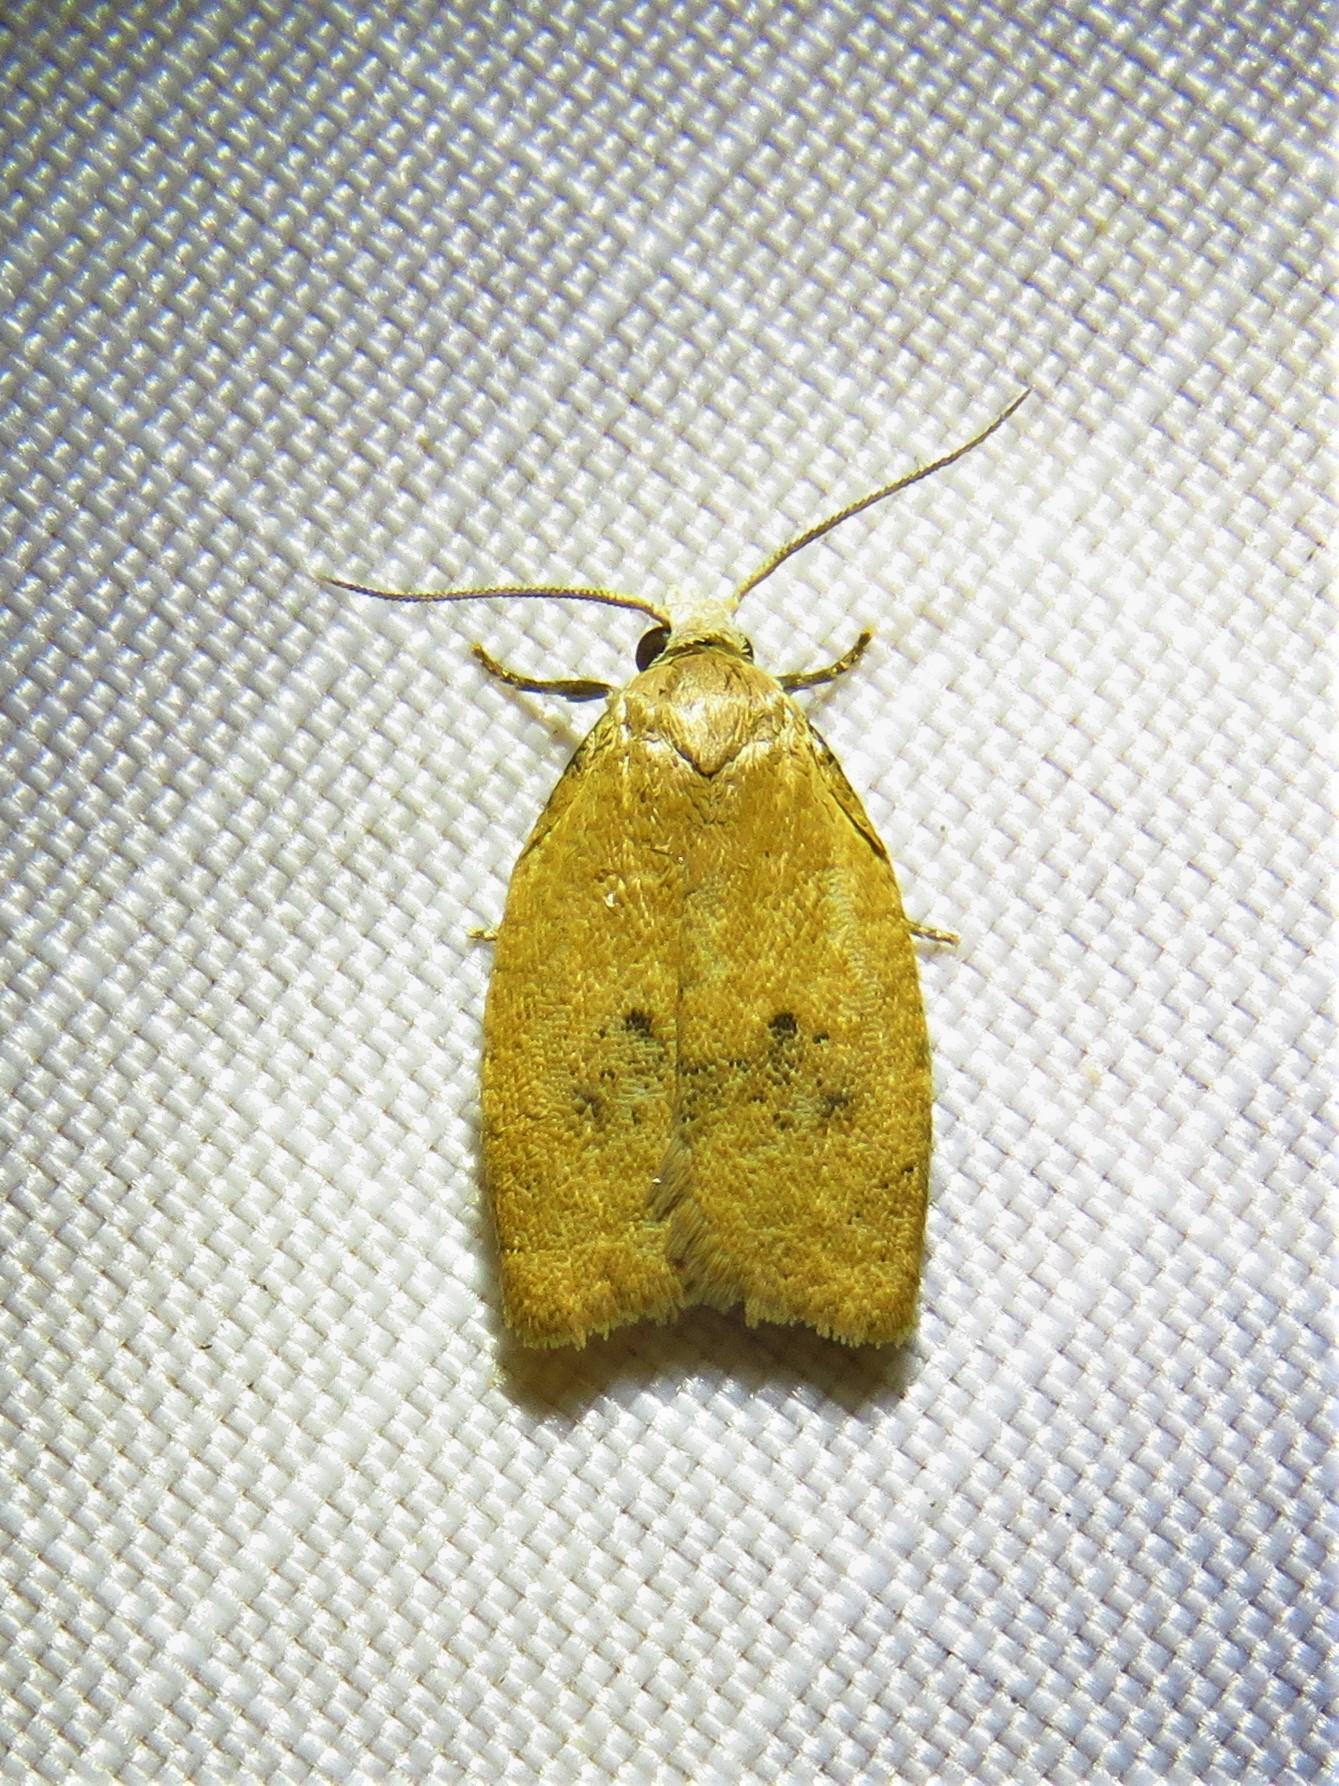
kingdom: Animalia
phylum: Arthropoda
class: Insecta
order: Lepidoptera
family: Tortricidae
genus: Sparganothoides
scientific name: Sparganothoides lentiginosana
